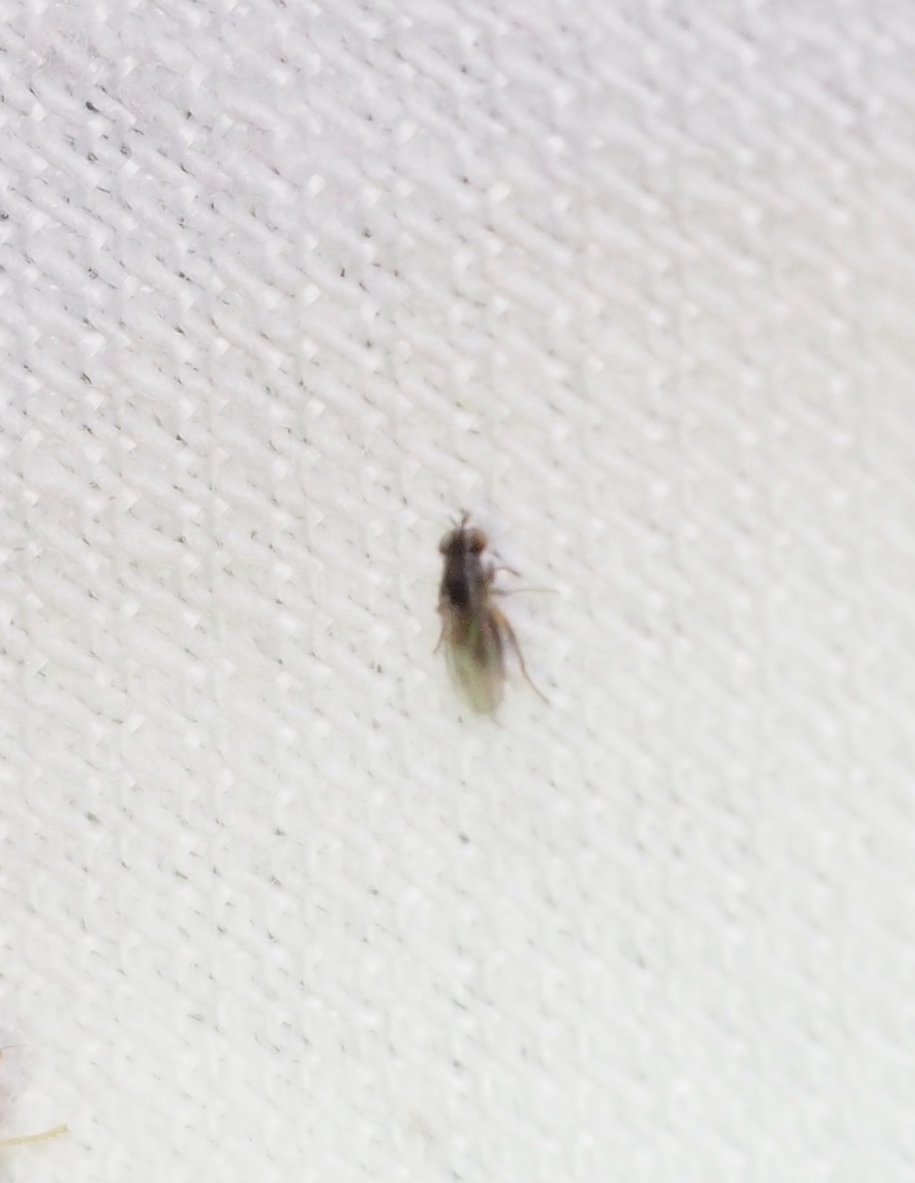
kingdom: Animalia
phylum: Arthropoda
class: Insecta
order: Diptera
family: Ephydridae
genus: Nostima
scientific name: Nostima picta
